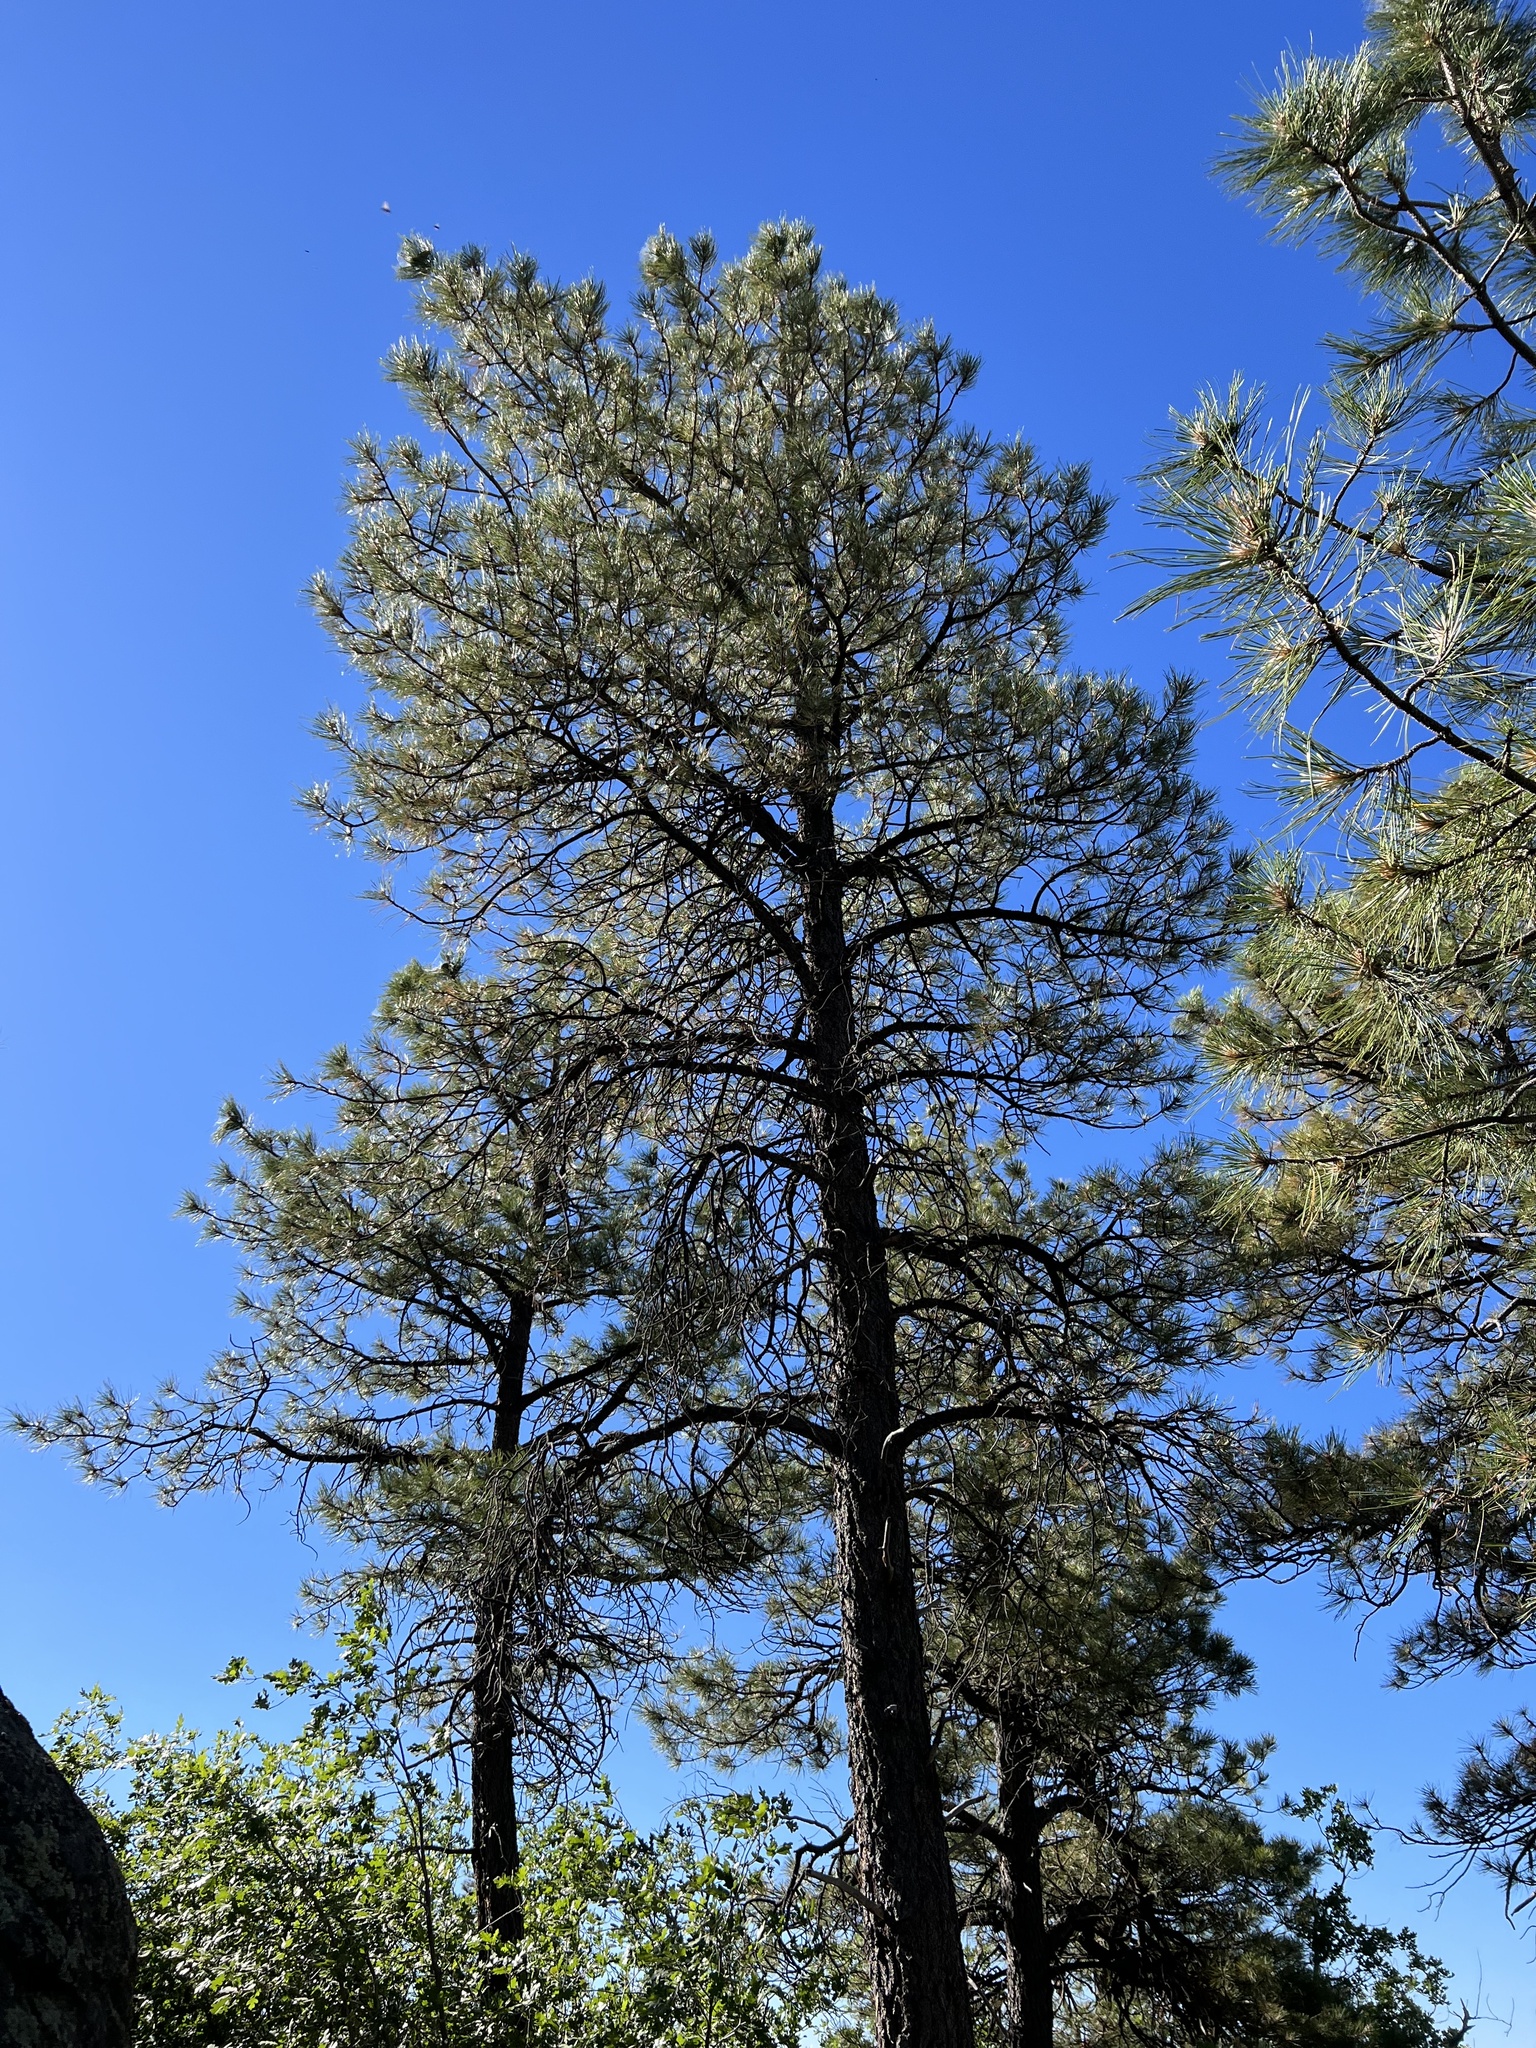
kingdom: Plantae
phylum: Tracheophyta
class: Pinopsida
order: Pinales
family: Pinaceae
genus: Pinus
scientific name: Pinus ponderosa
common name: Western yellow-pine
